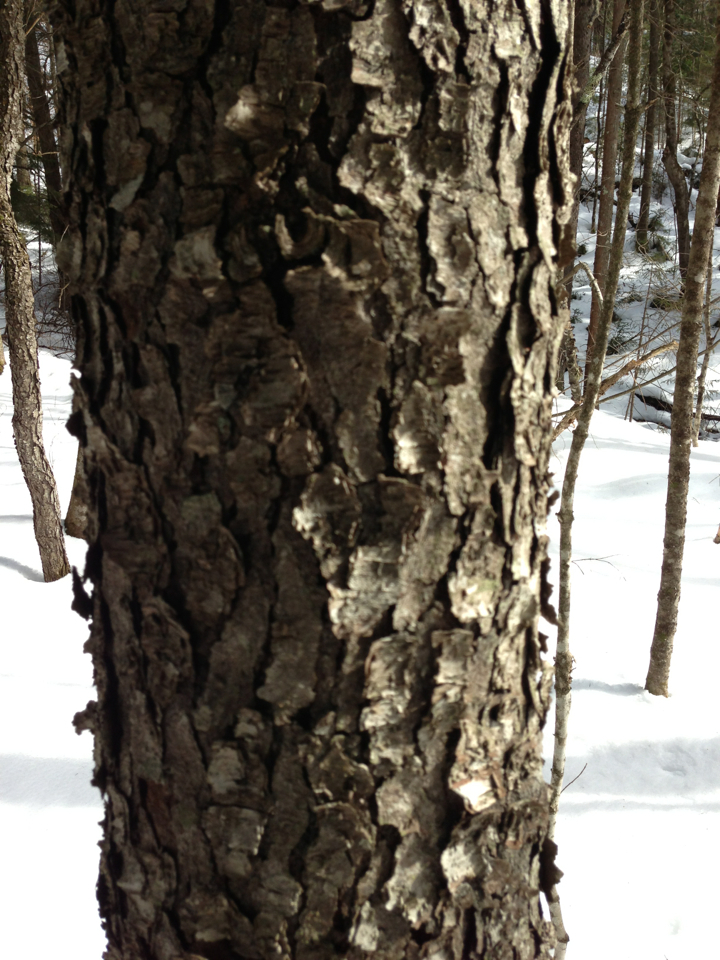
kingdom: Plantae
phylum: Tracheophyta
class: Magnoliopsida
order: Rosales
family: Rosaceae
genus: Prunus
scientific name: Prunus serotina
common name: Black cherry
